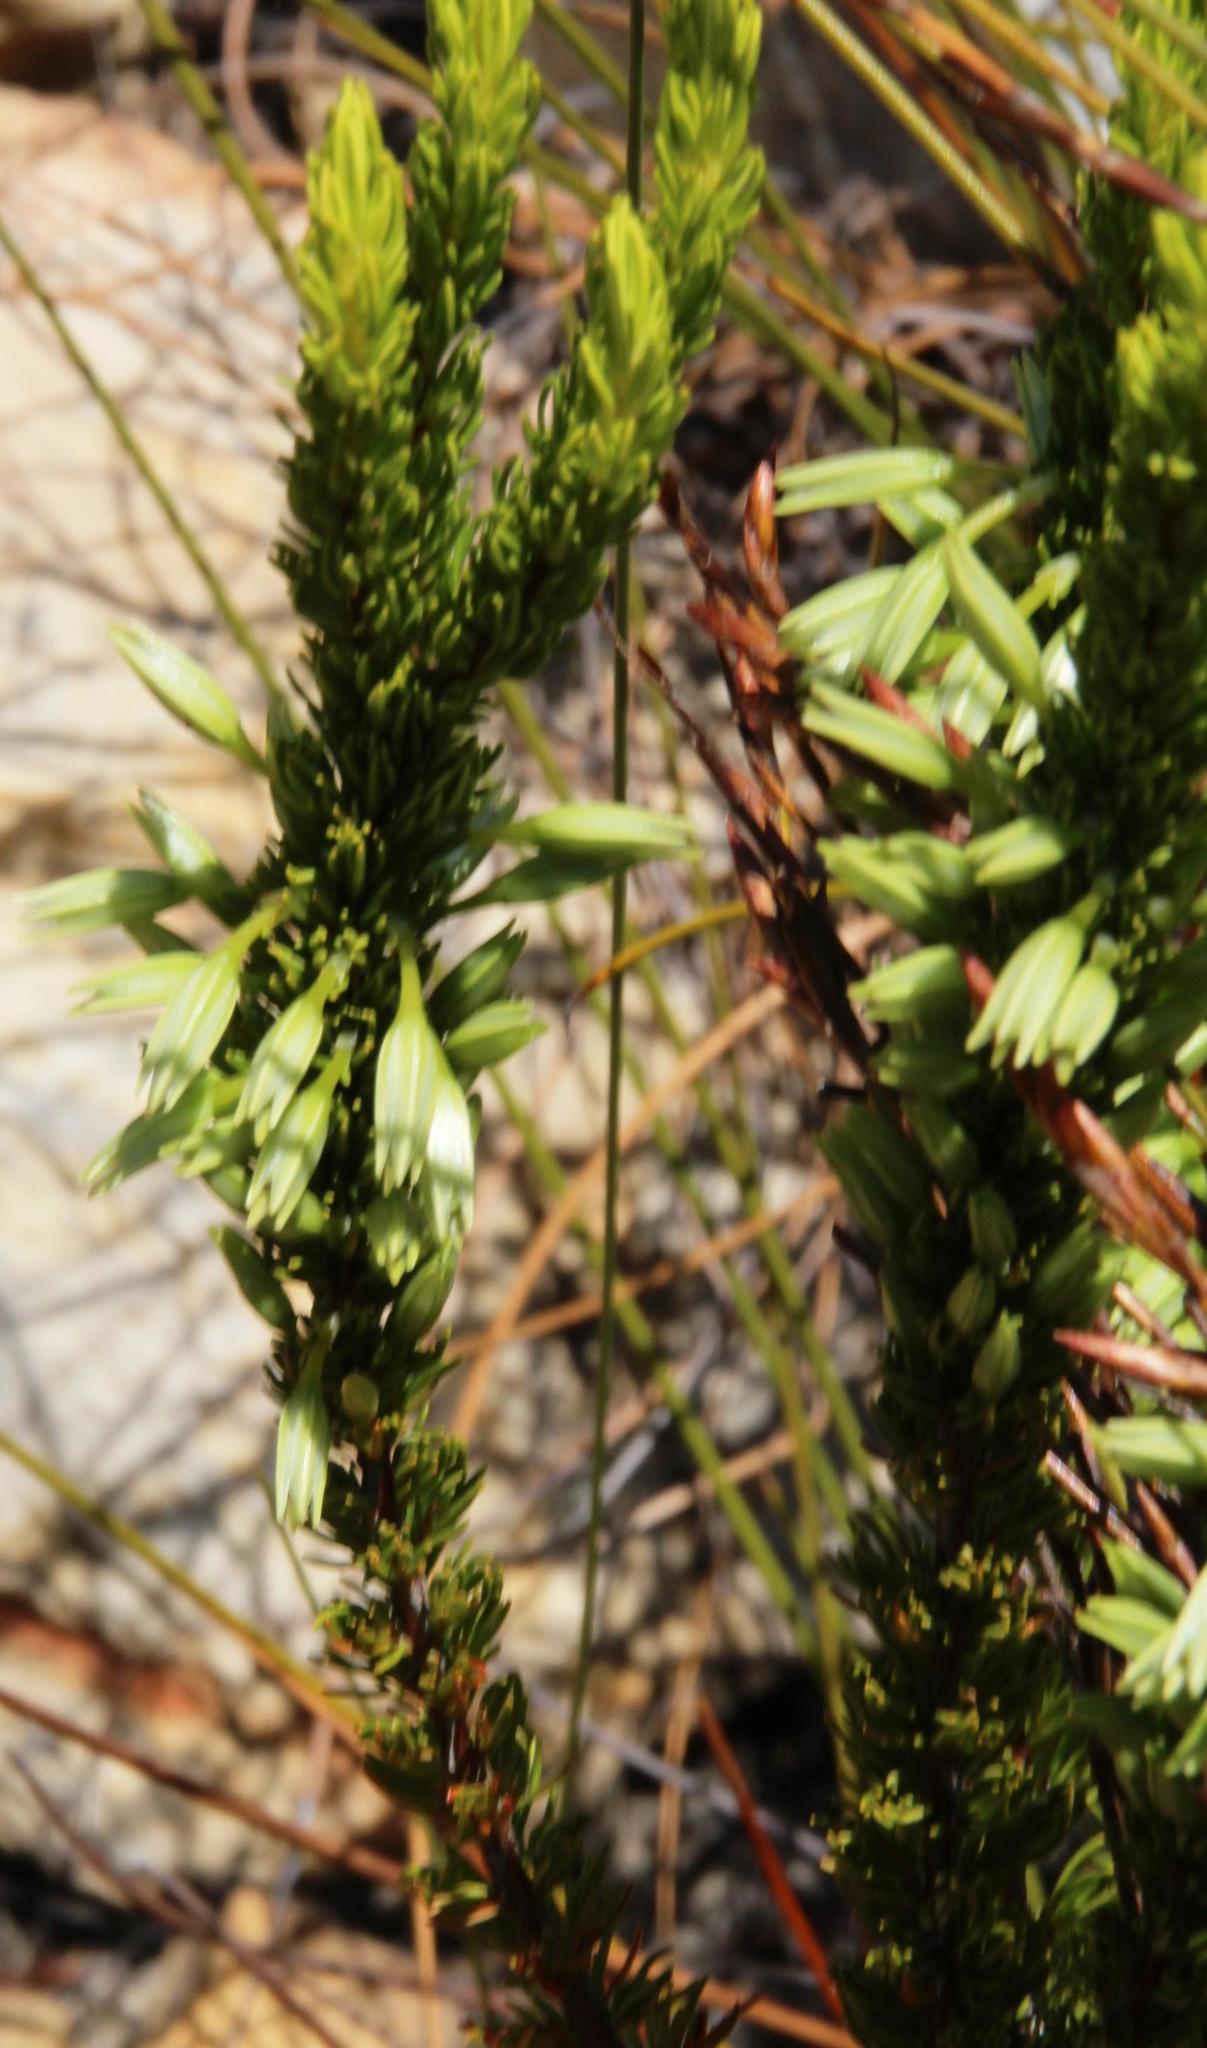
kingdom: Plantae
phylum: Tracheophyta
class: Magnoliopsida
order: Ericales
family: Ericaceae
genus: Erica
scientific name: Erica plukenetii
